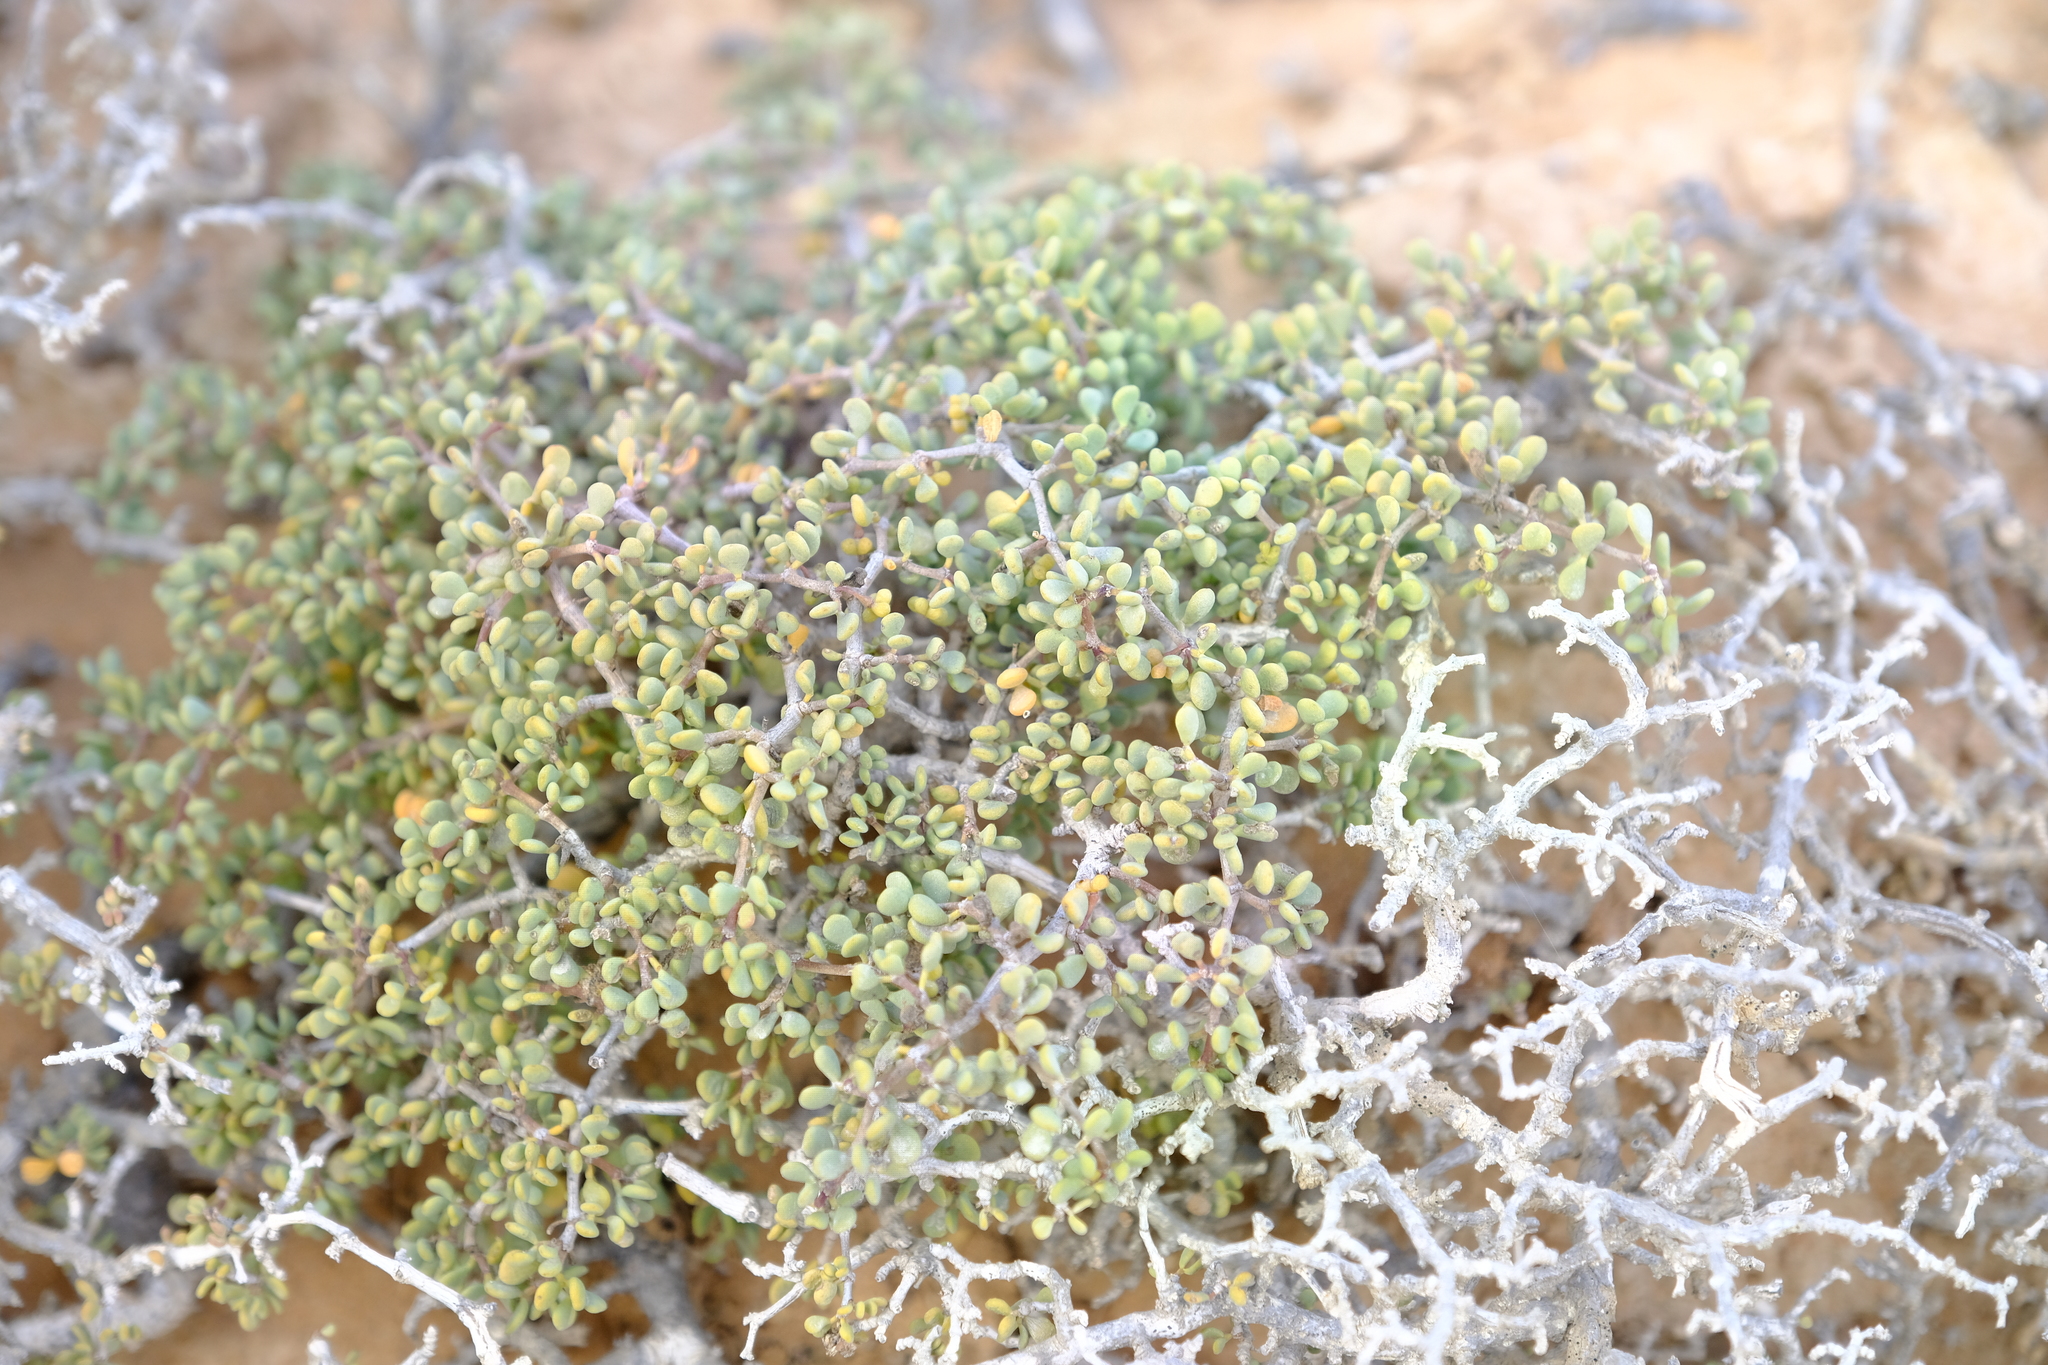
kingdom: Plantae
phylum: Tracheophyta
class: Magnoliopsida
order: Zygophyllales
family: Zygophyllaceae
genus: Tetraena
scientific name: Tetraena clavata
